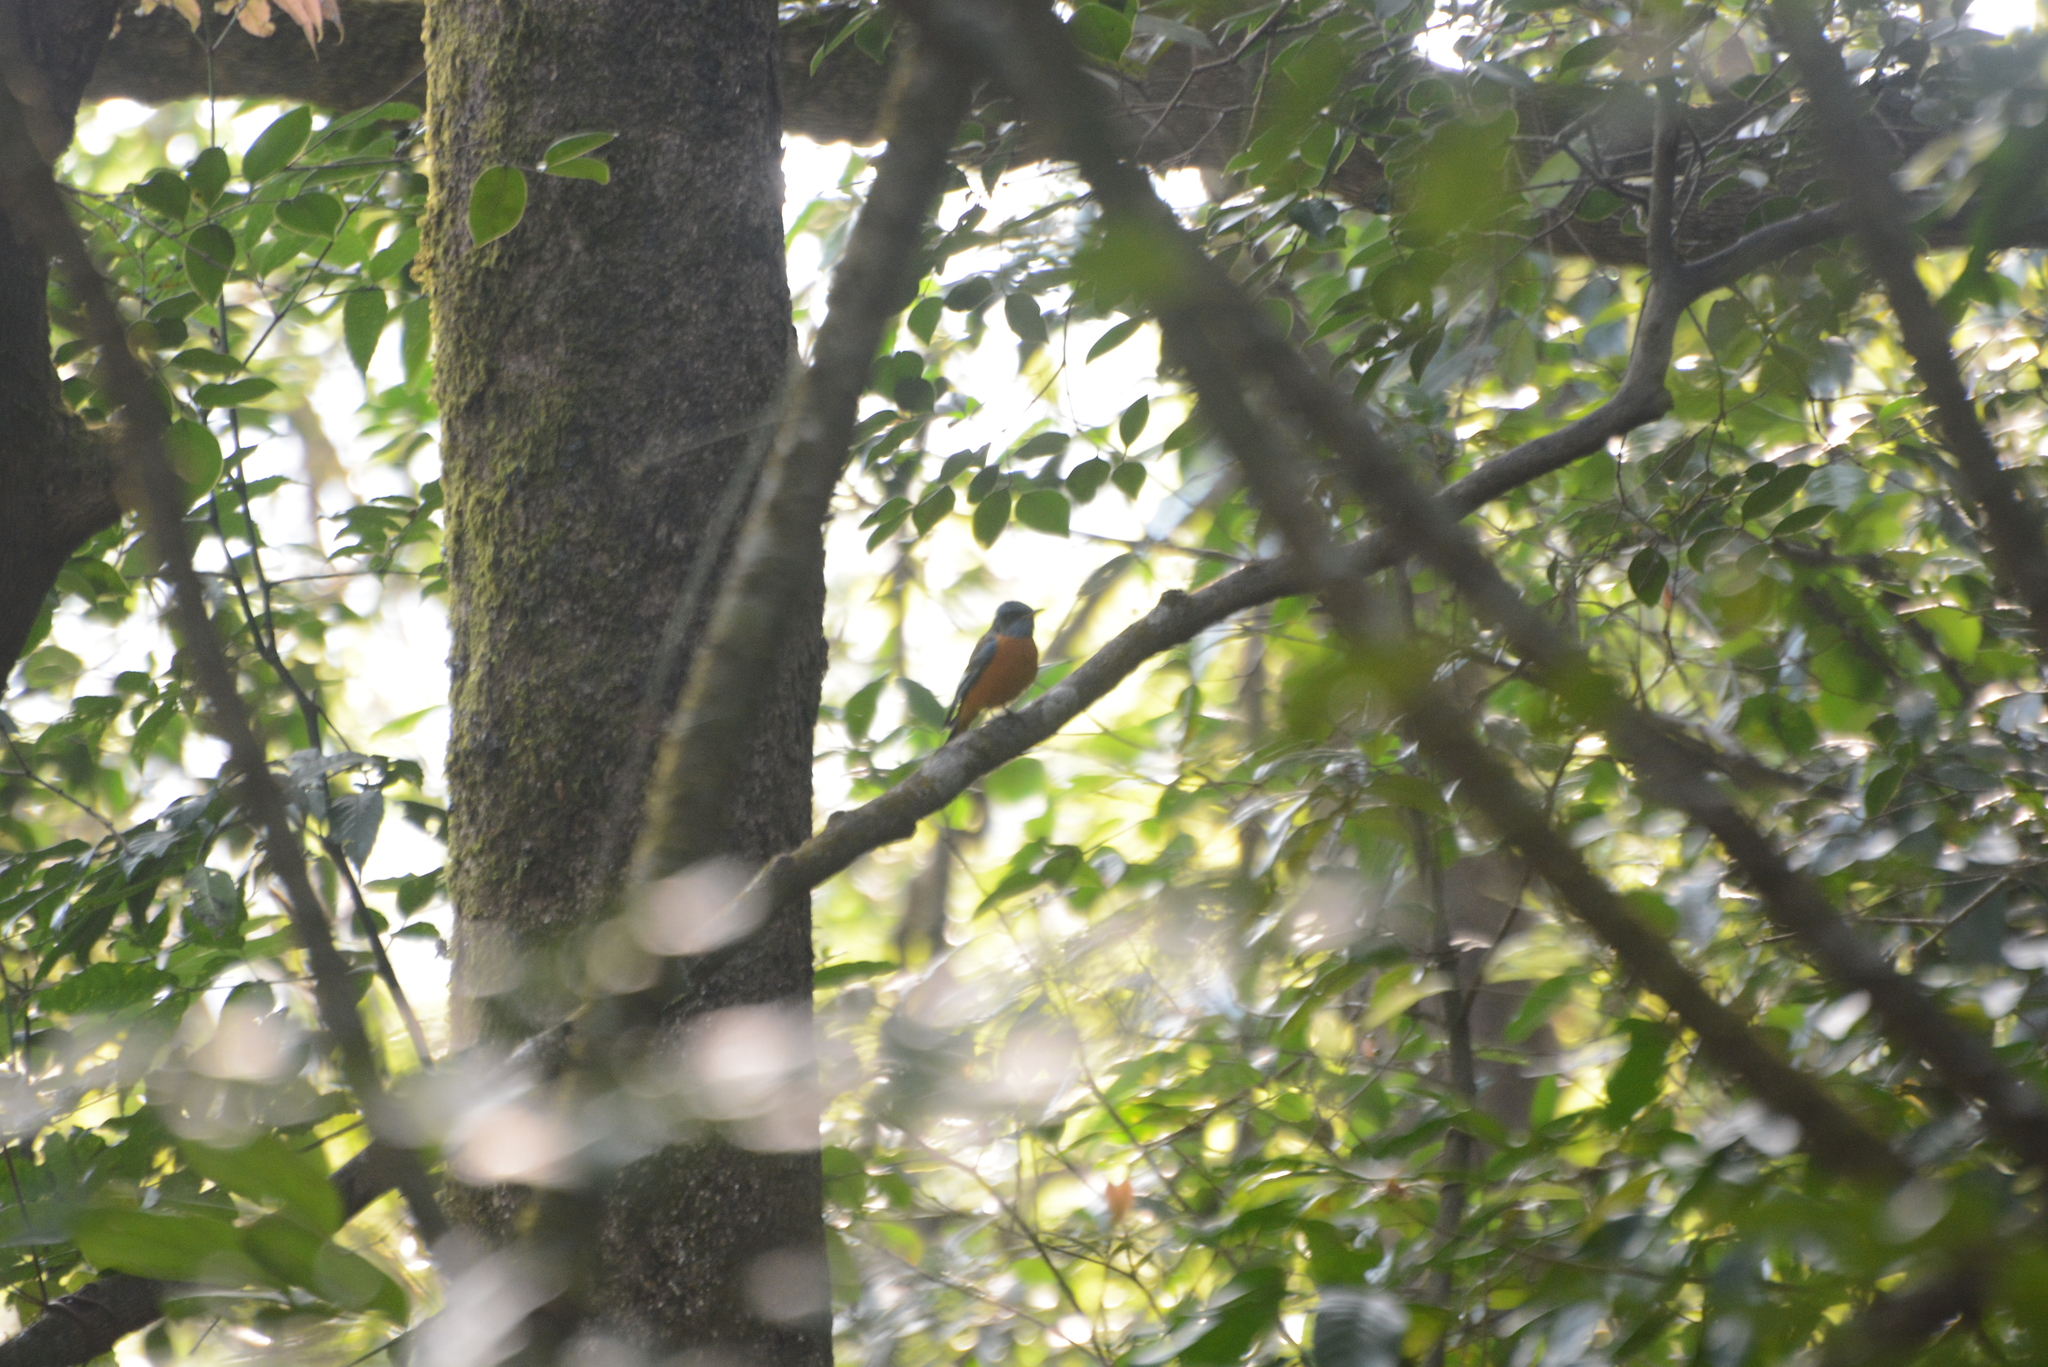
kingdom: Animalia
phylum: Chordata
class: Aves
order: Passeriformes
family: Muscicapidae
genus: Monticola
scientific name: Monticola cinclorhynchus
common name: Blue-capped rock thrush
